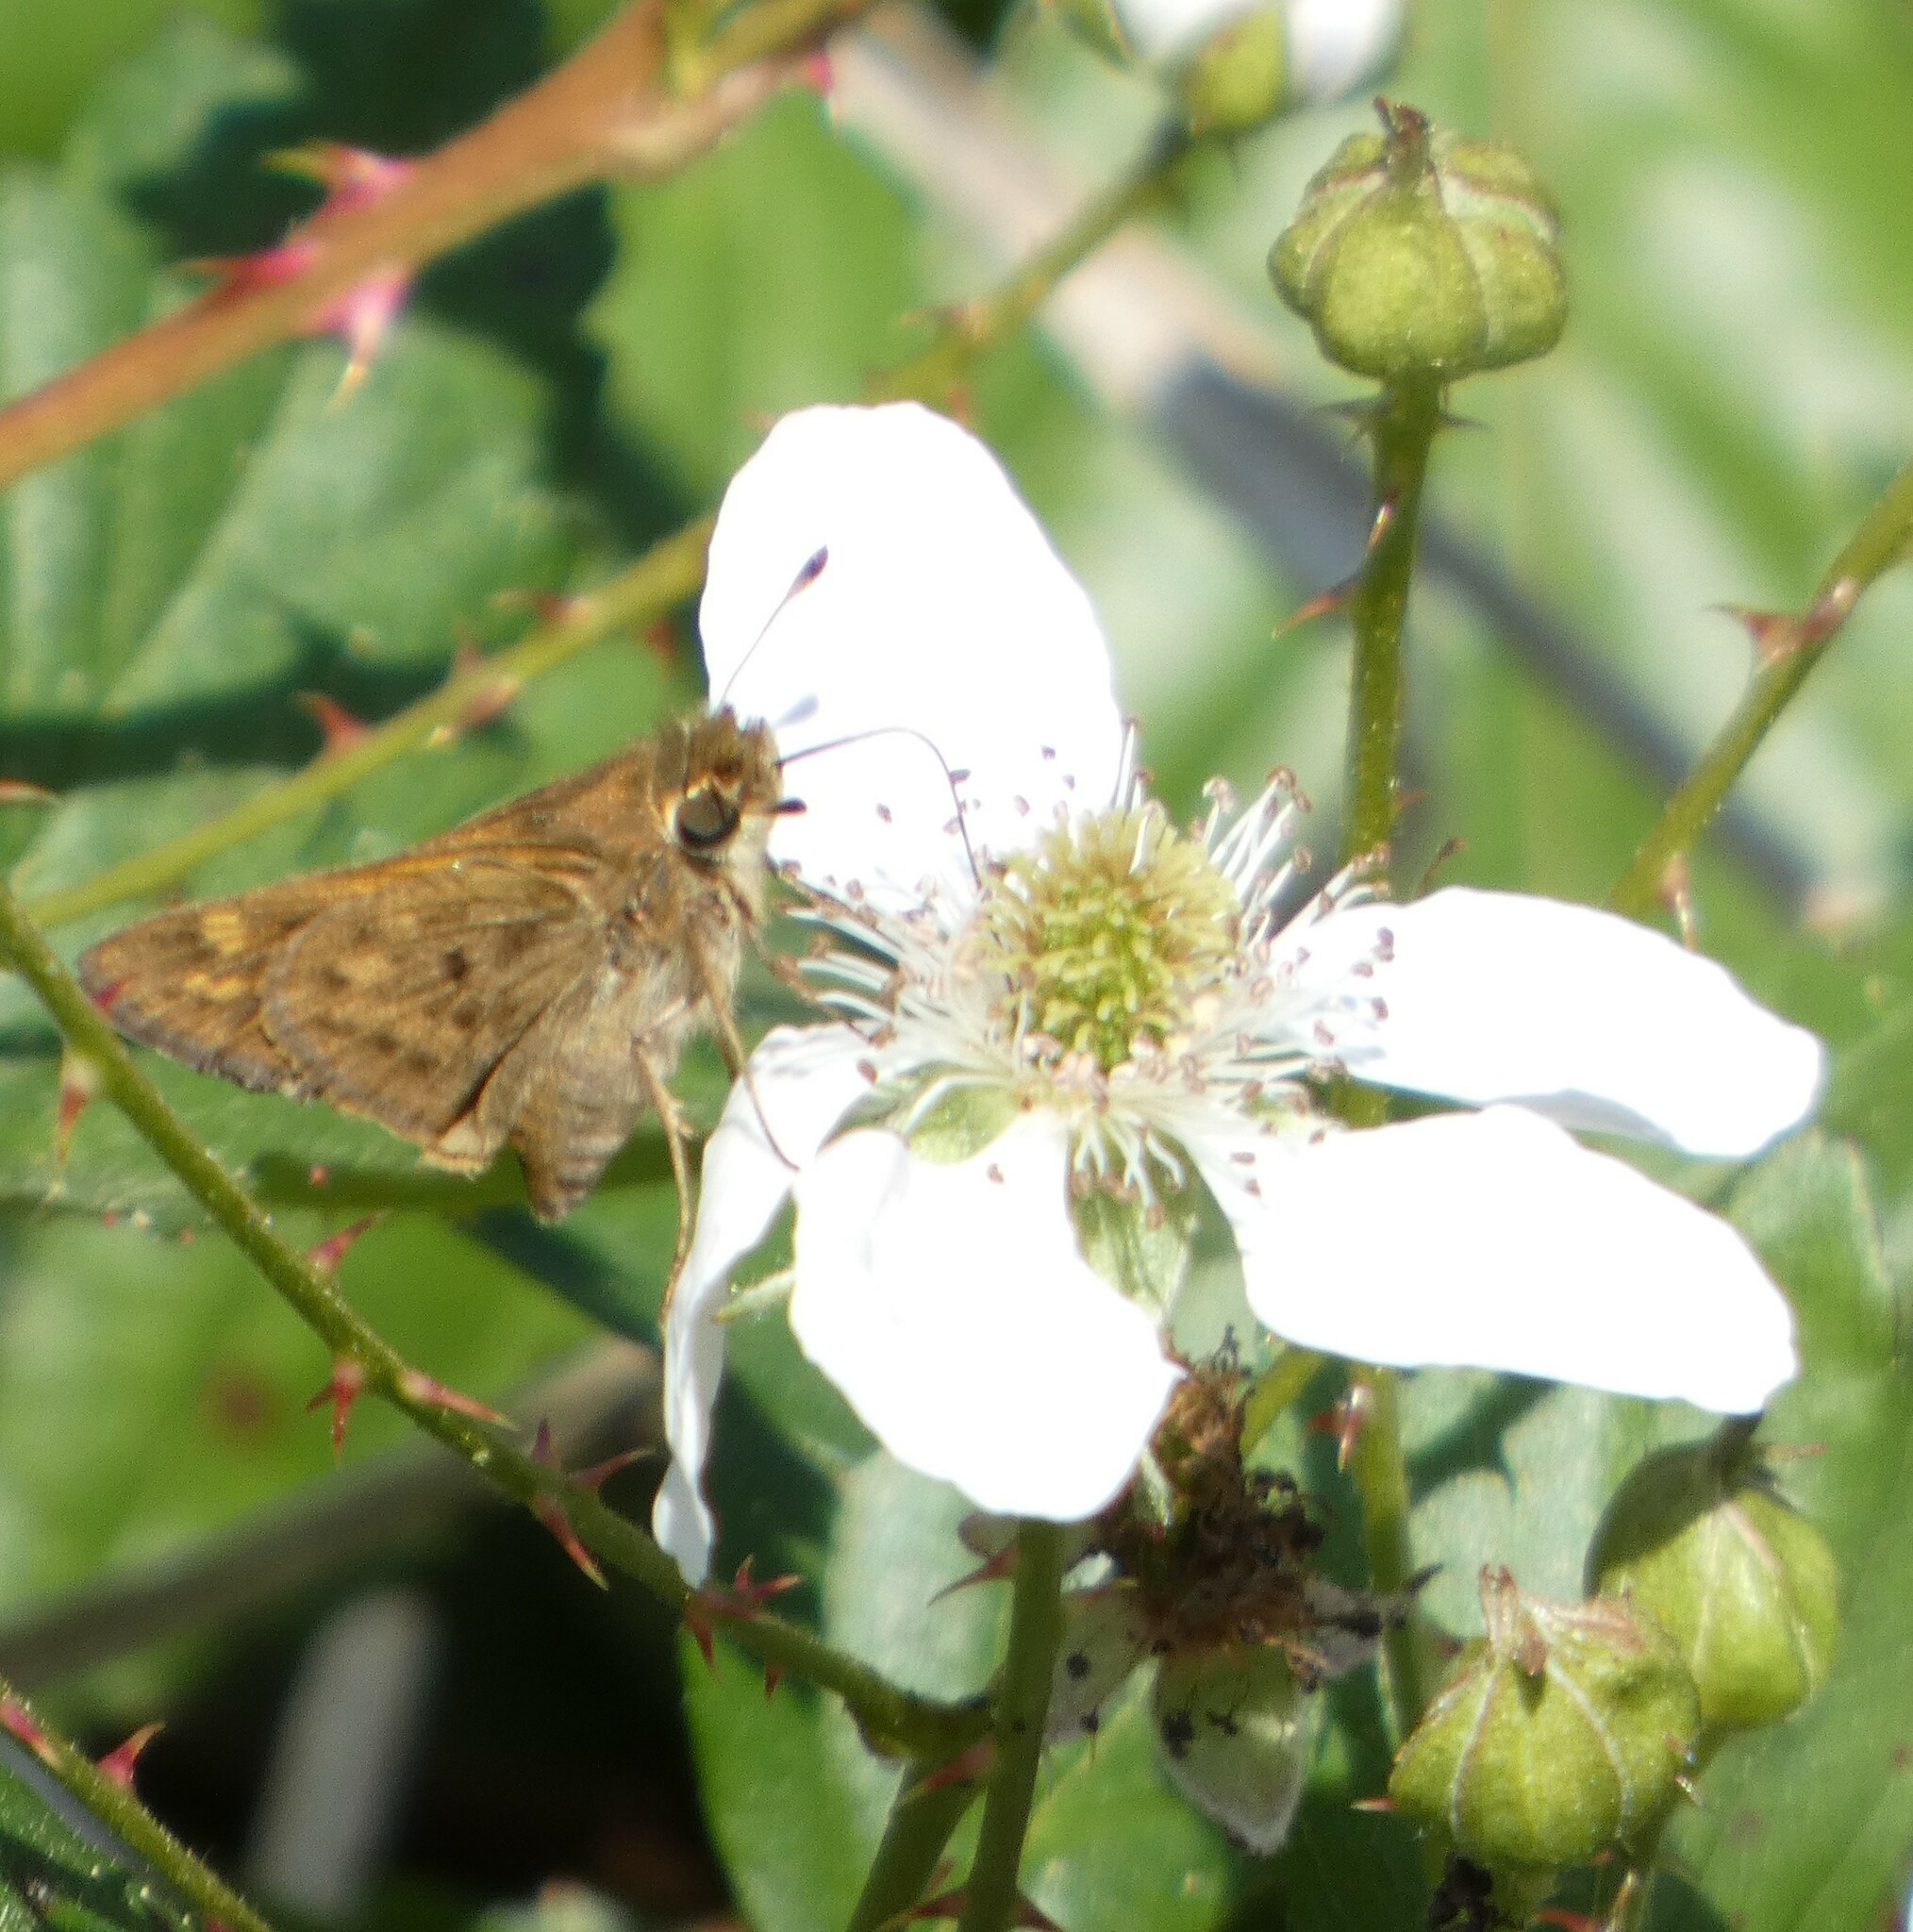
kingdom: Animalia
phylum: Arthropoda
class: Insecta
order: Lepidoptera
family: Hesperiidae
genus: Hylephila
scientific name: Hylephila phyleus
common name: Fiery skipper
